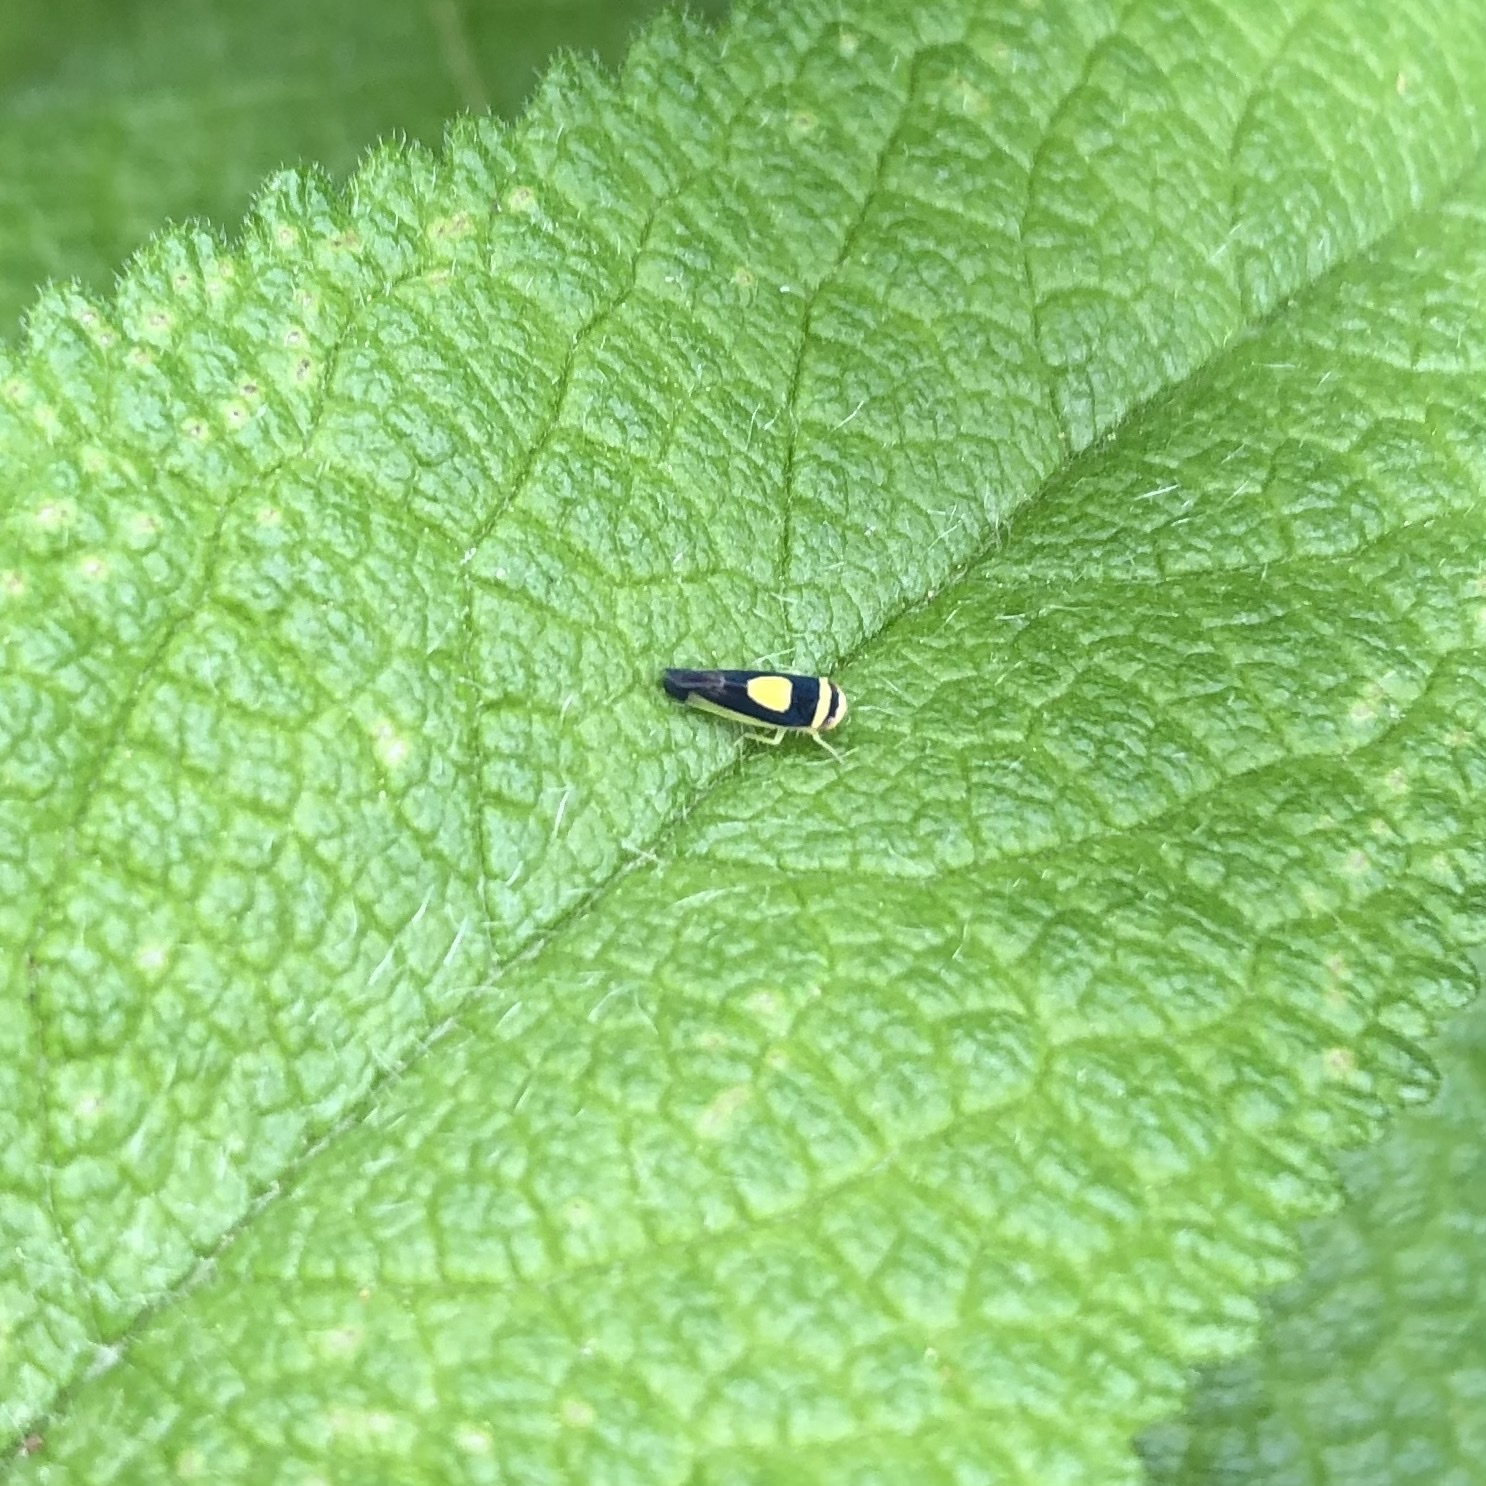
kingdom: Animalia
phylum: Arthropoda
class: Insecta
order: Hemiptera
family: Cicadellidae
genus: Colladonus
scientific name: Colladonus clitellarius
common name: The saddleback leafhopper
